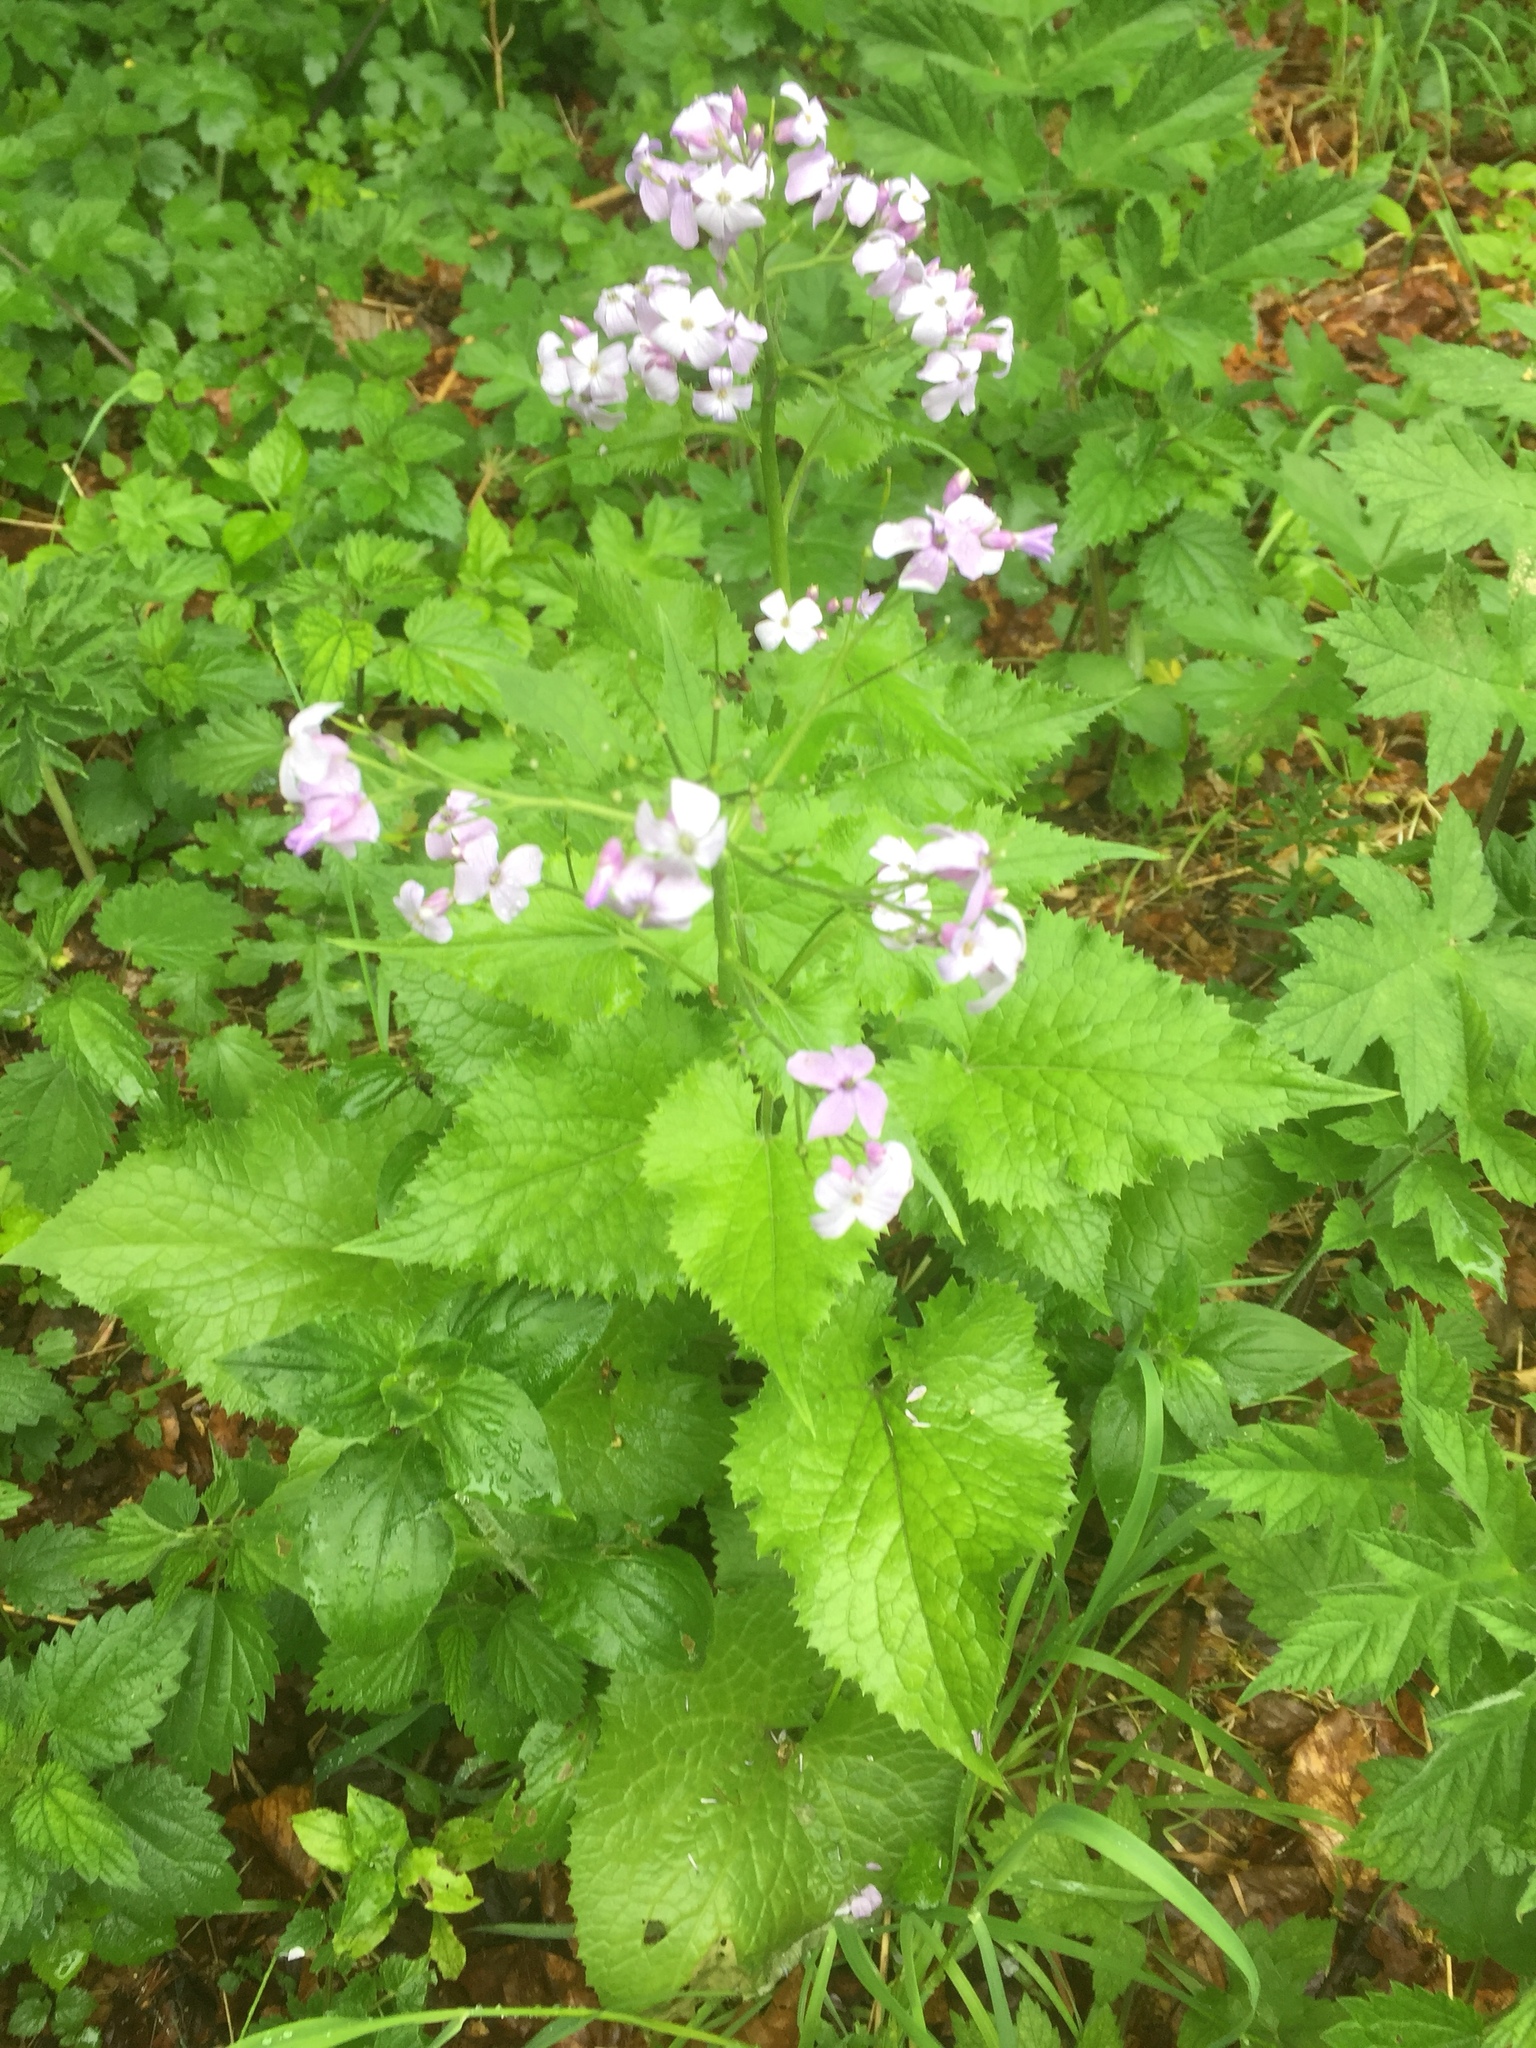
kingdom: Plantae
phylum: Tracheophyta
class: Magnoliopsida
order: Brassicales
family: Brassicaceae
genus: Lunaria
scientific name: Lunaria rediviva
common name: Perennial honesty
